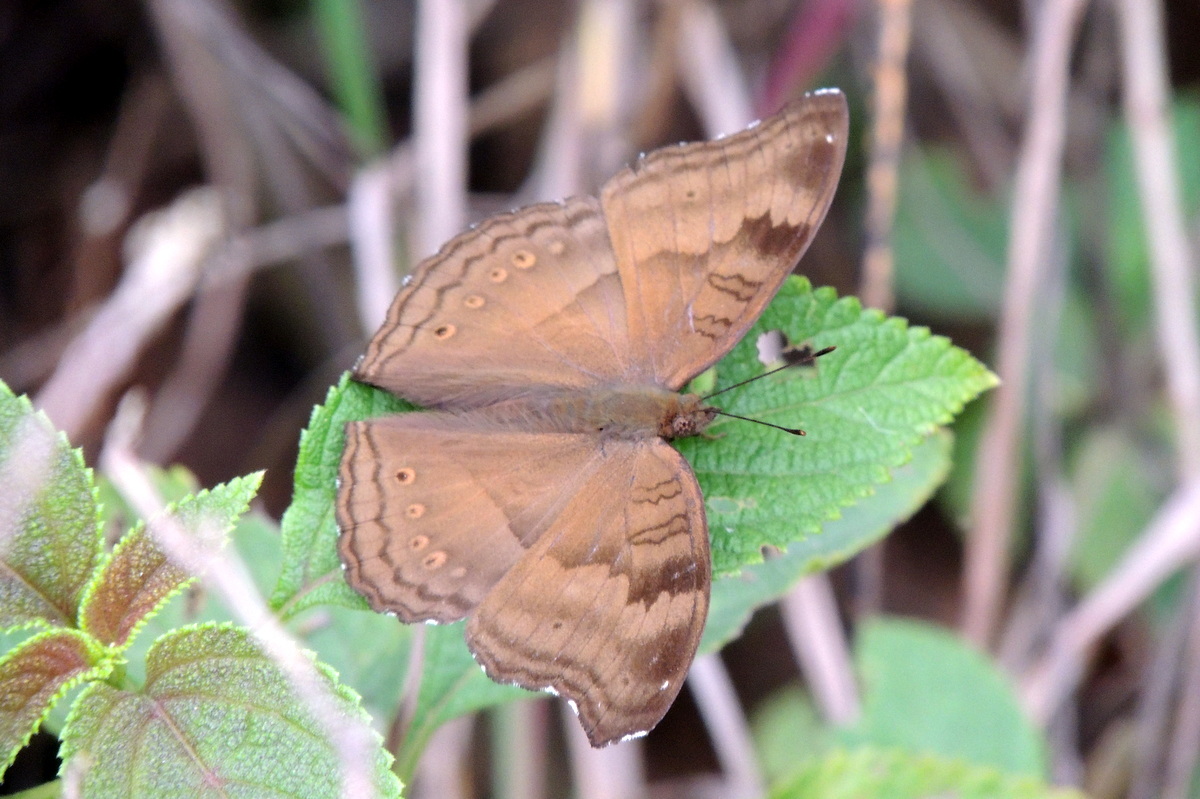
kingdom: Animalia
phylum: Arthropoda
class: Insecta
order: Lepidoptera
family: Nymphalidae
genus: Junonia
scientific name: Junonia iphita
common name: Chocolate pansy
